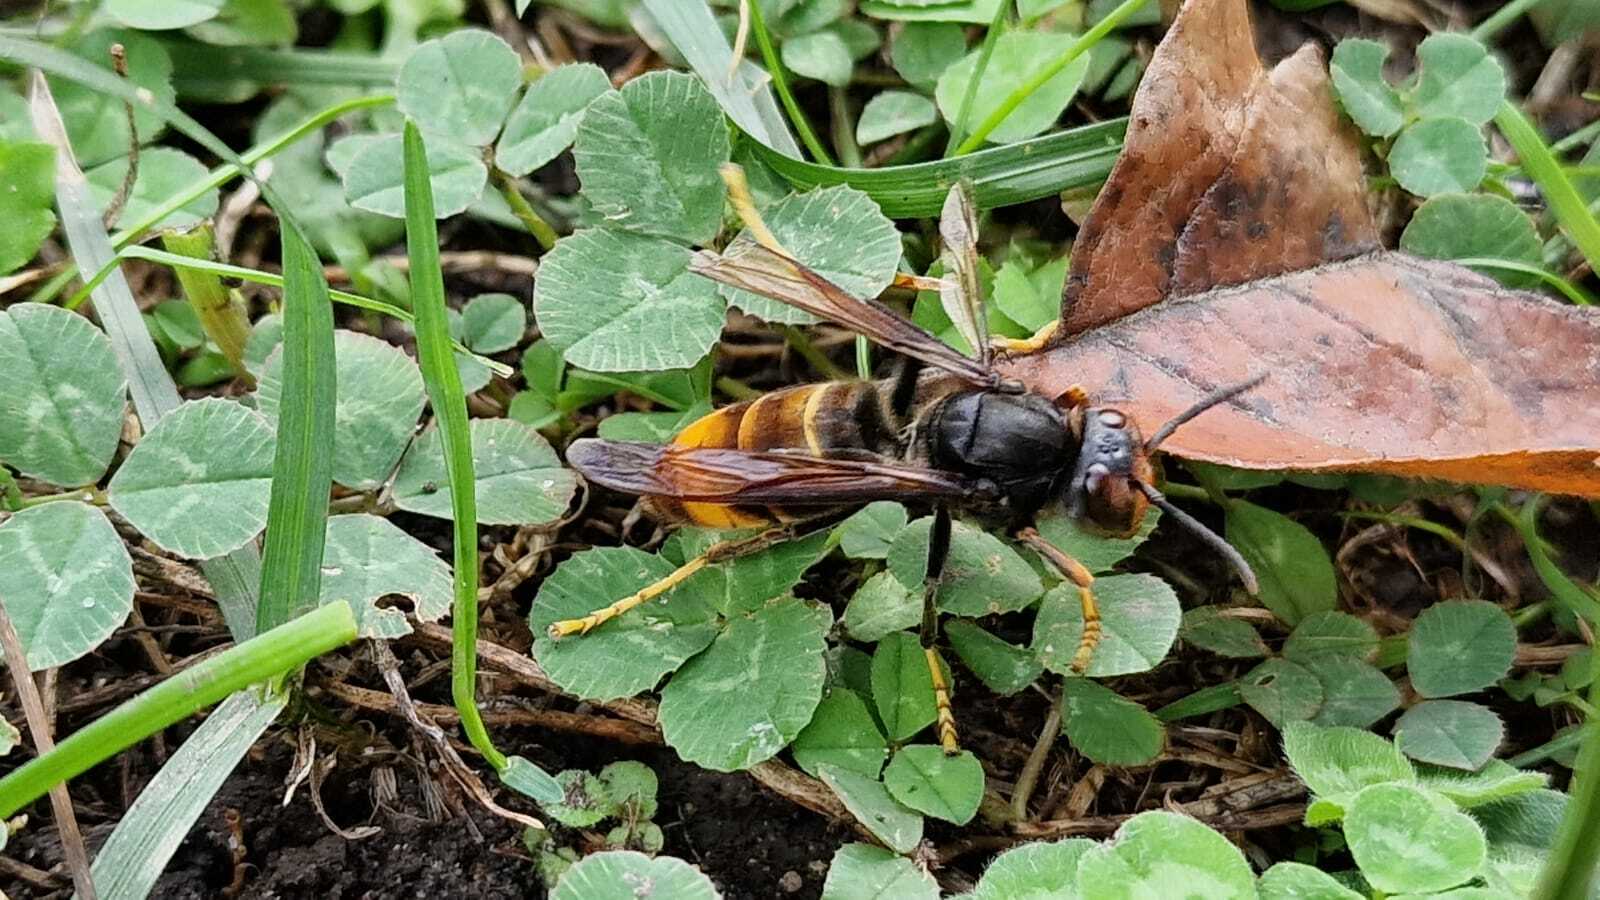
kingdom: Animalia
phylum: Arthropoda
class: Insecta
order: Hymenoptera
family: Vespidae
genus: Vespa
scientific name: Vespa velutina
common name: Asian hornet
